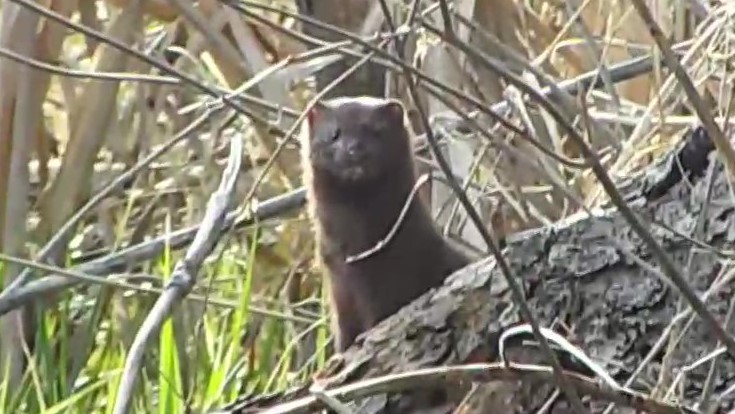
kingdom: Animalia
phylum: Chordata
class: Mammalia
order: Carnivora
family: Mustelidae
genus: Mustela
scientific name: Mustela
